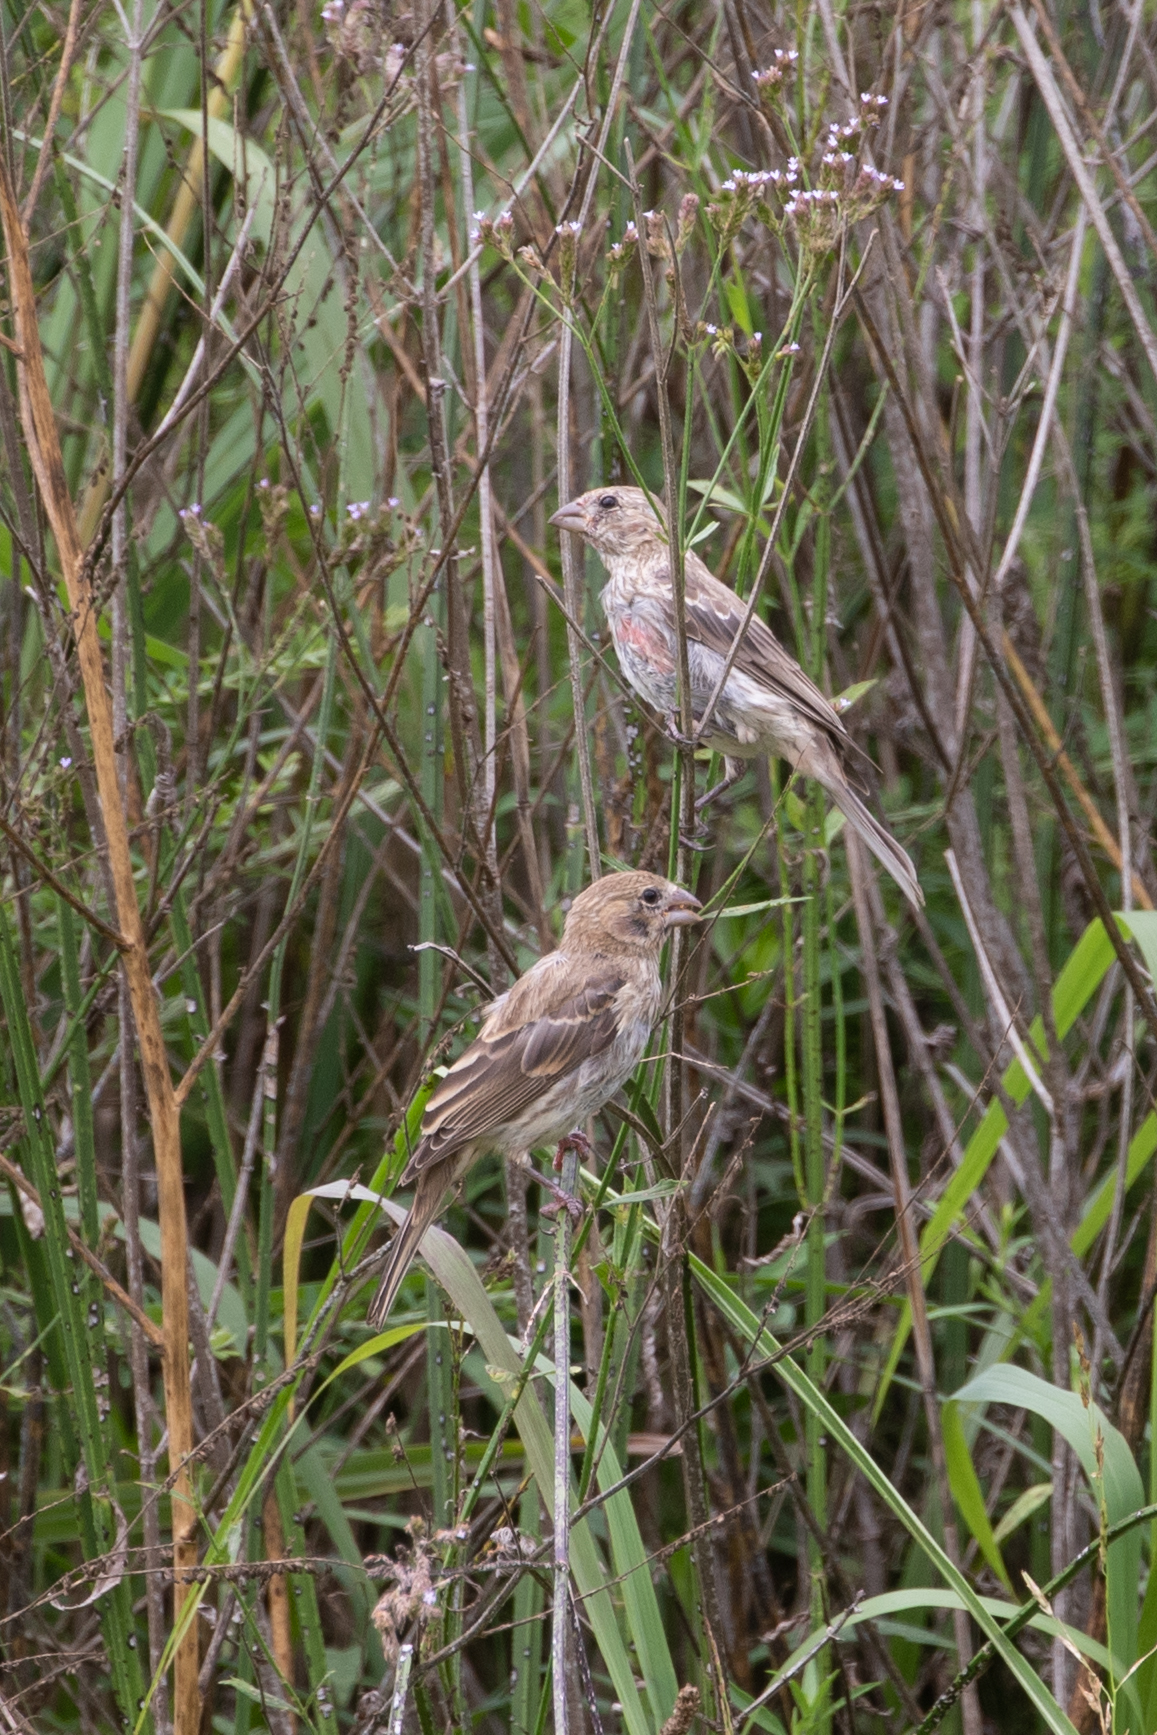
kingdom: Animalia
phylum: Chordata
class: Aves
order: Passeriformes
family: Fringillidae
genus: Haemorhous
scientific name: Haemorhous mexicanus
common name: House finch
